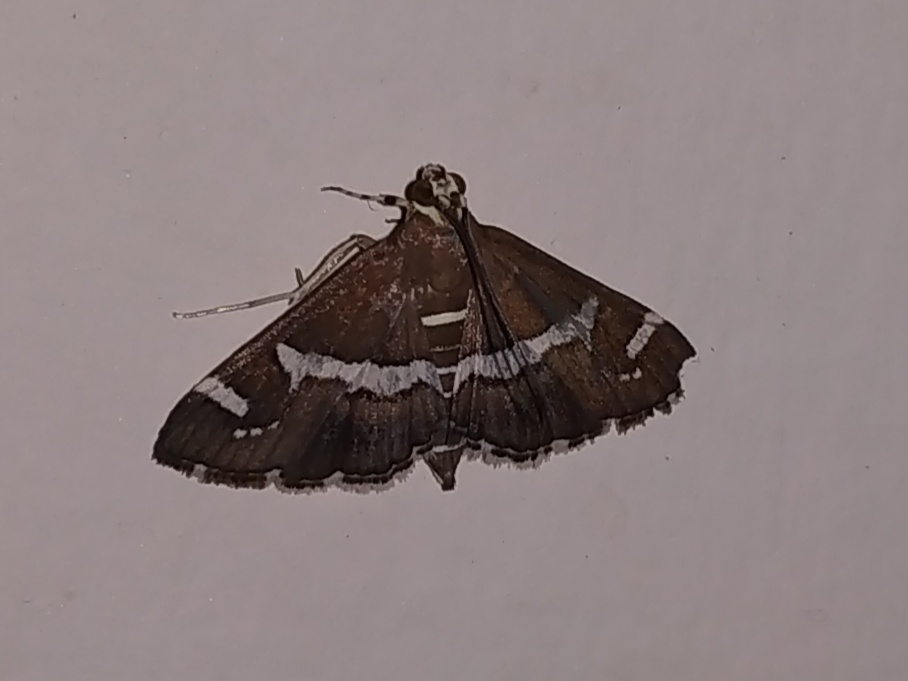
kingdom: Animalia
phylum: Arthropoda
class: Insecta
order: Lepidoptera
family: Crambidae
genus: Spoladea
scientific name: Spoladea recurvalis
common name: Beet webworm moth
